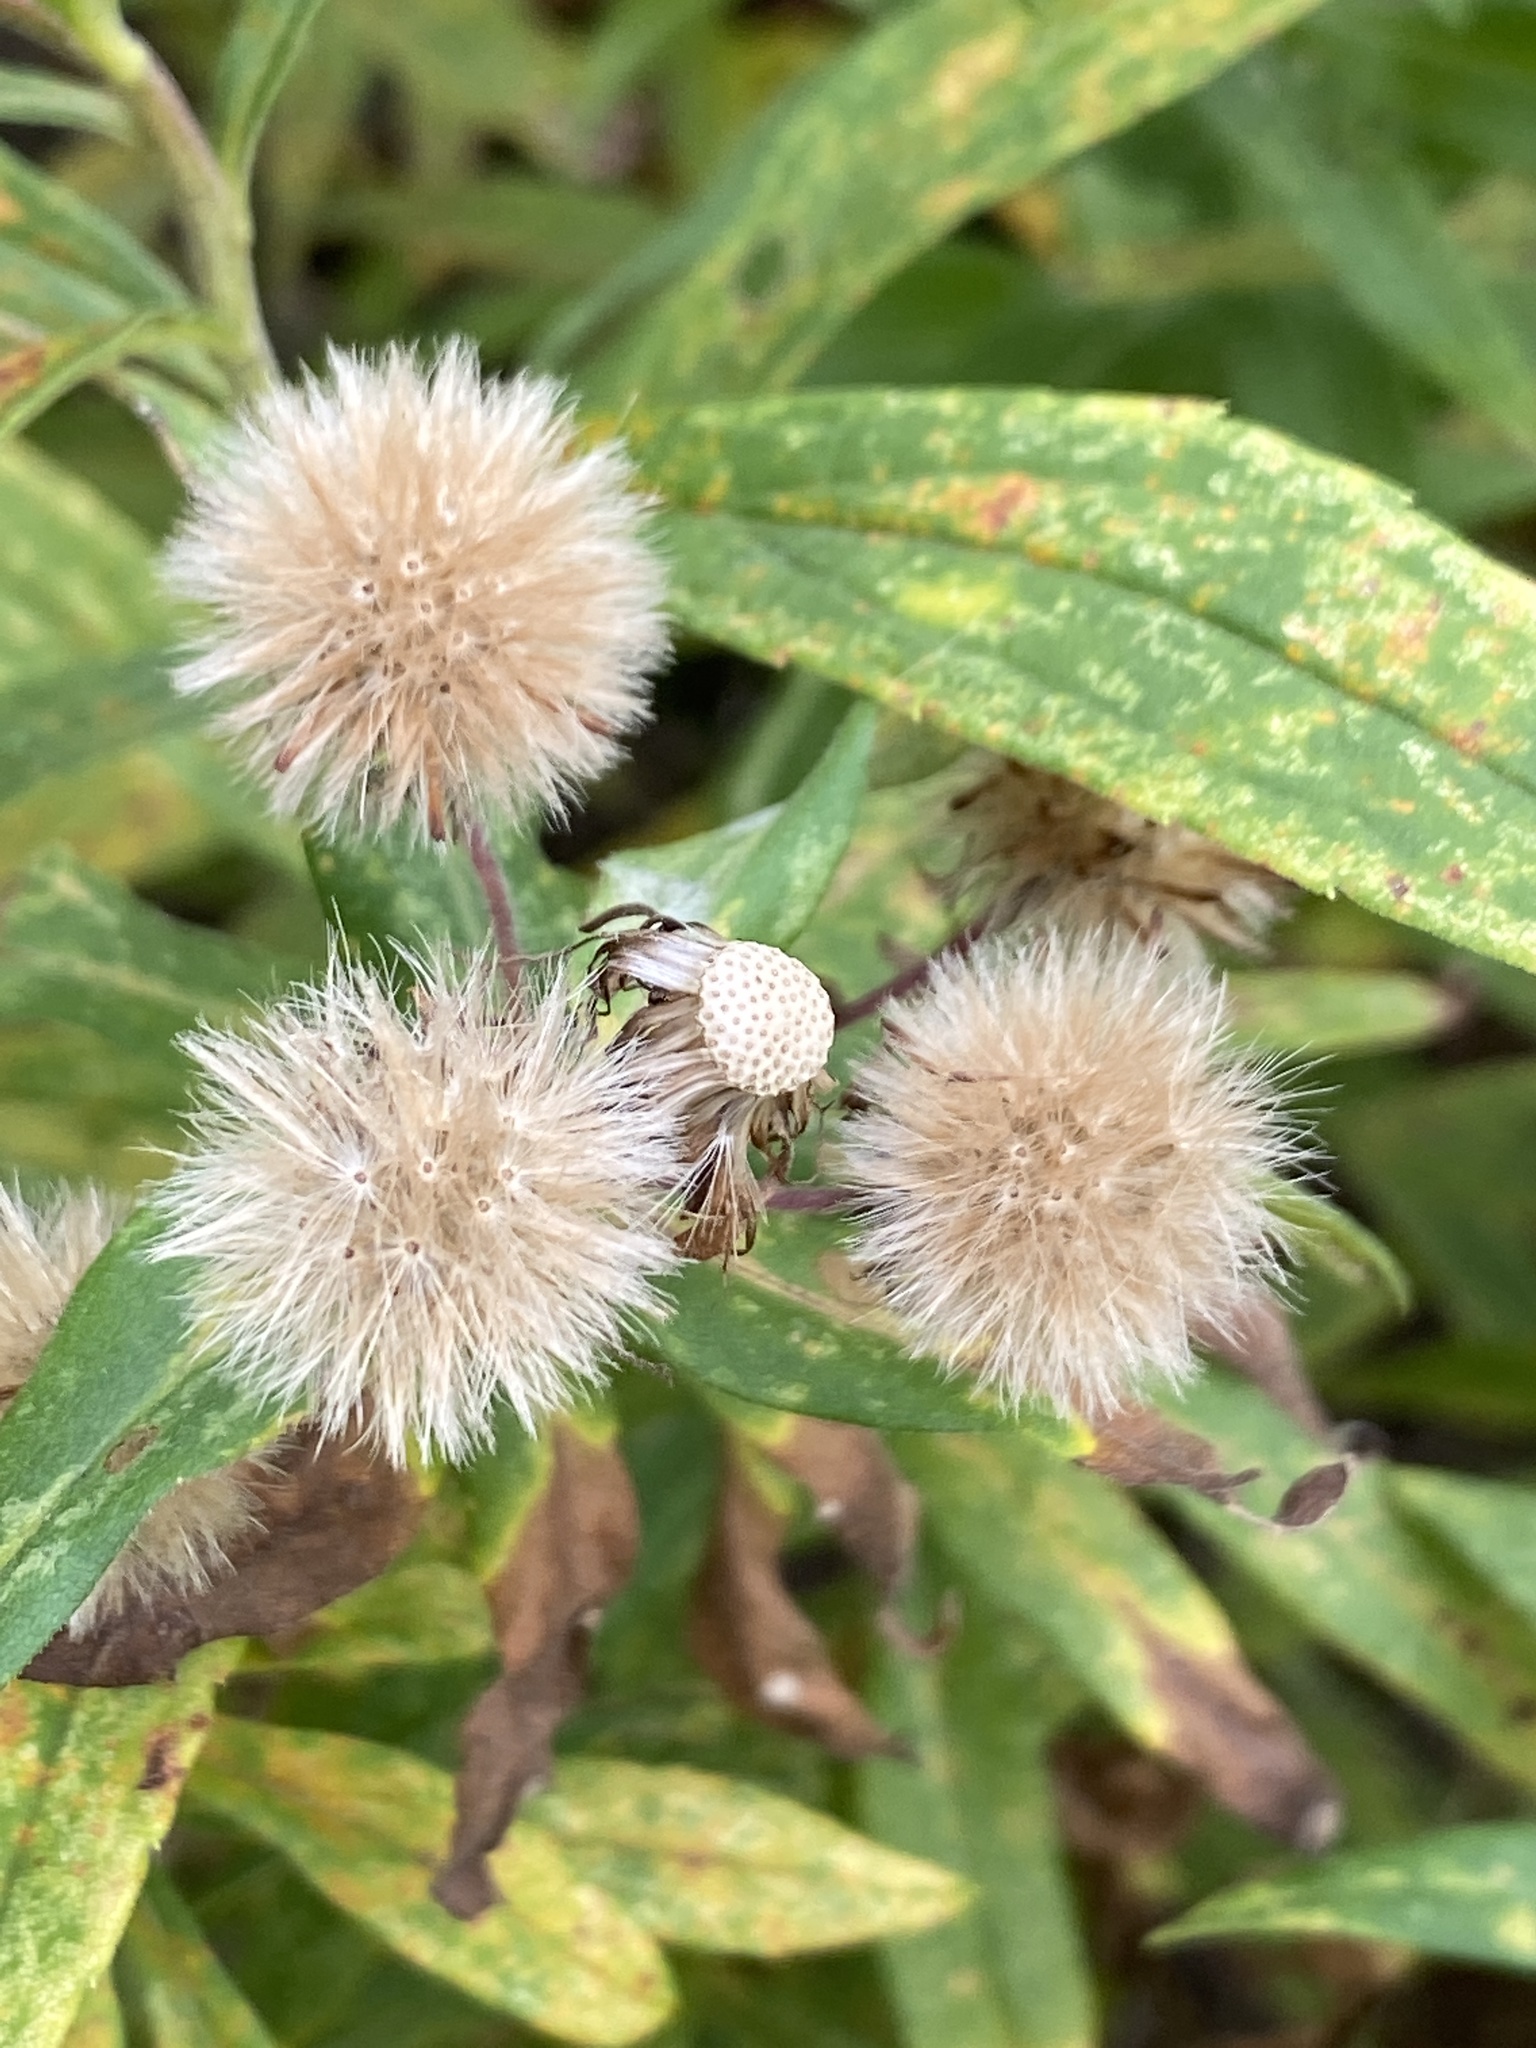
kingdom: Plantae
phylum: Tracheophyta
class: Magnoliopsida
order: Asterales
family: Asteraceae
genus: Symphyotrichum
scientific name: Symphyotrichum novae-angliae
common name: Michaelmas daisy
